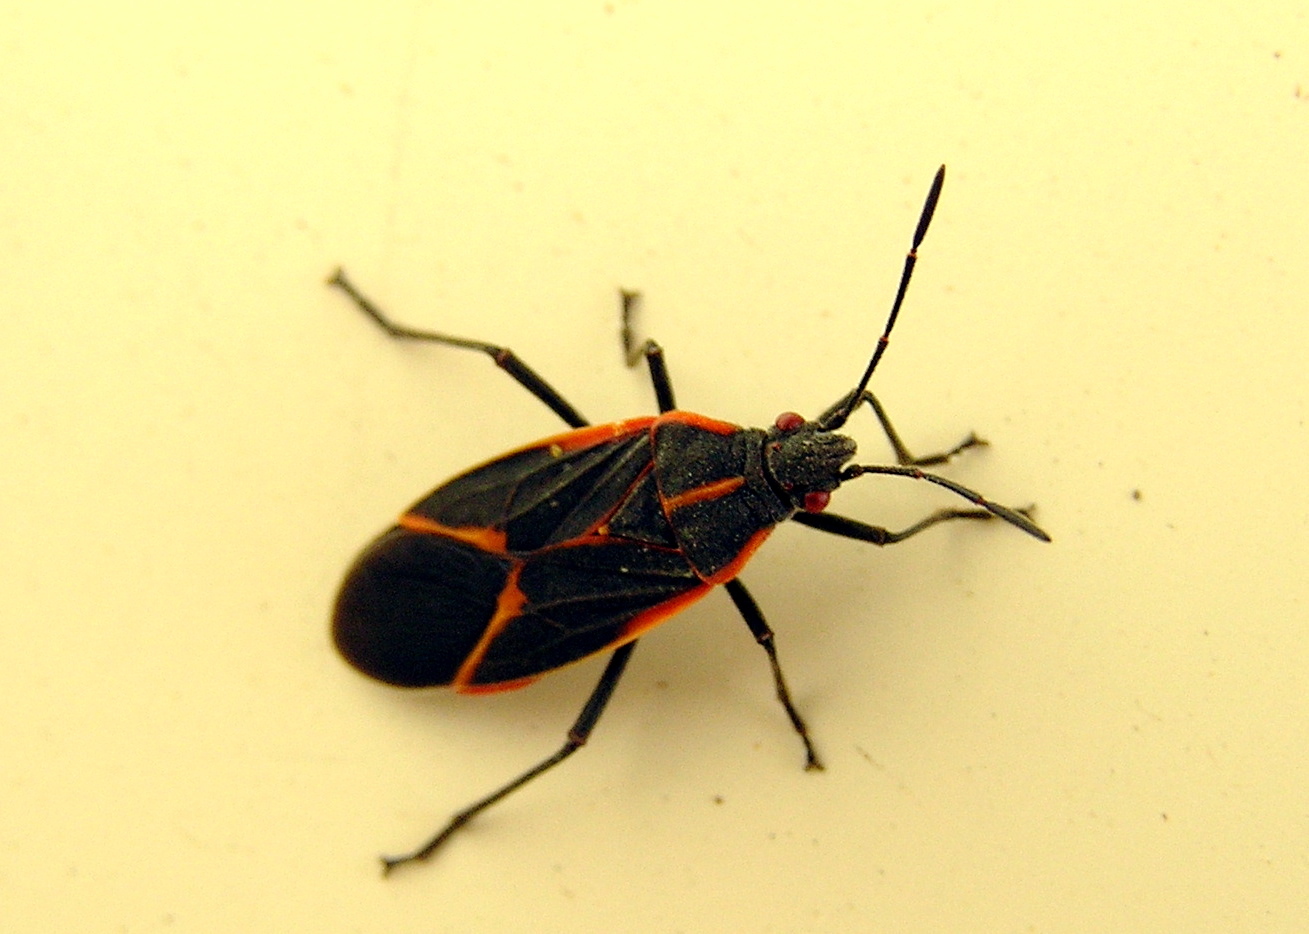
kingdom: Animalia
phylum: Arthropoda
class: Insecta
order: Hemiptera
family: Rhopalidae
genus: Boisea
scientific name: Boisea trivittata
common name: Boxelder bug
